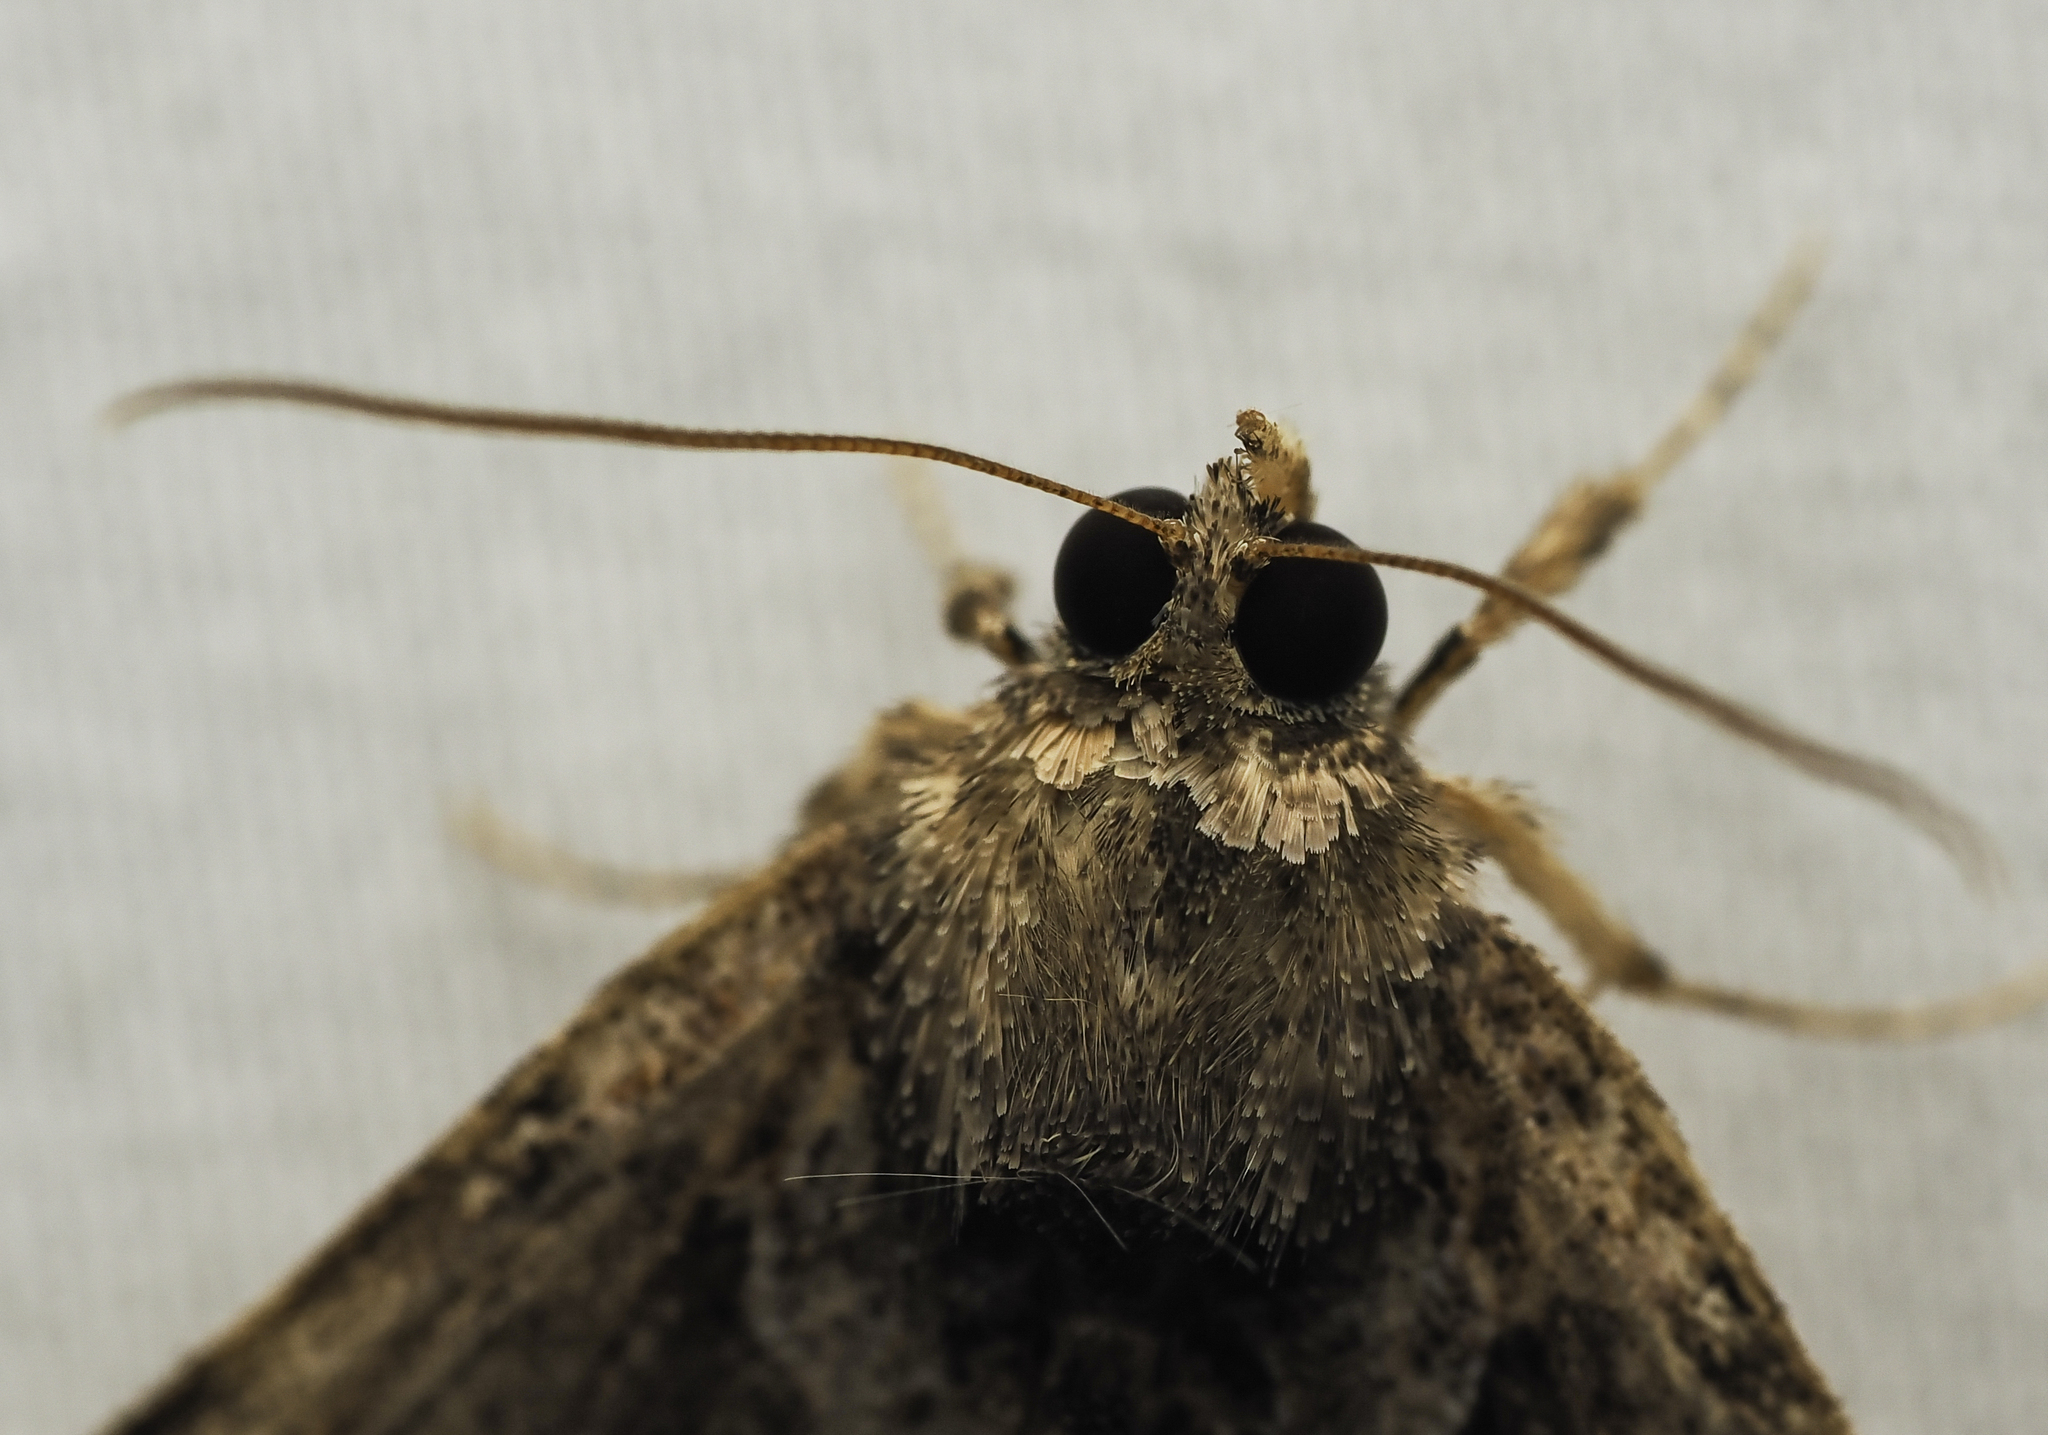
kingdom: Animalia
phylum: Arthropoda
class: Insecta
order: Lepidoptera
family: Erebidae
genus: Hypena
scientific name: Hypena palparia
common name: Mottled bomolocha moth
